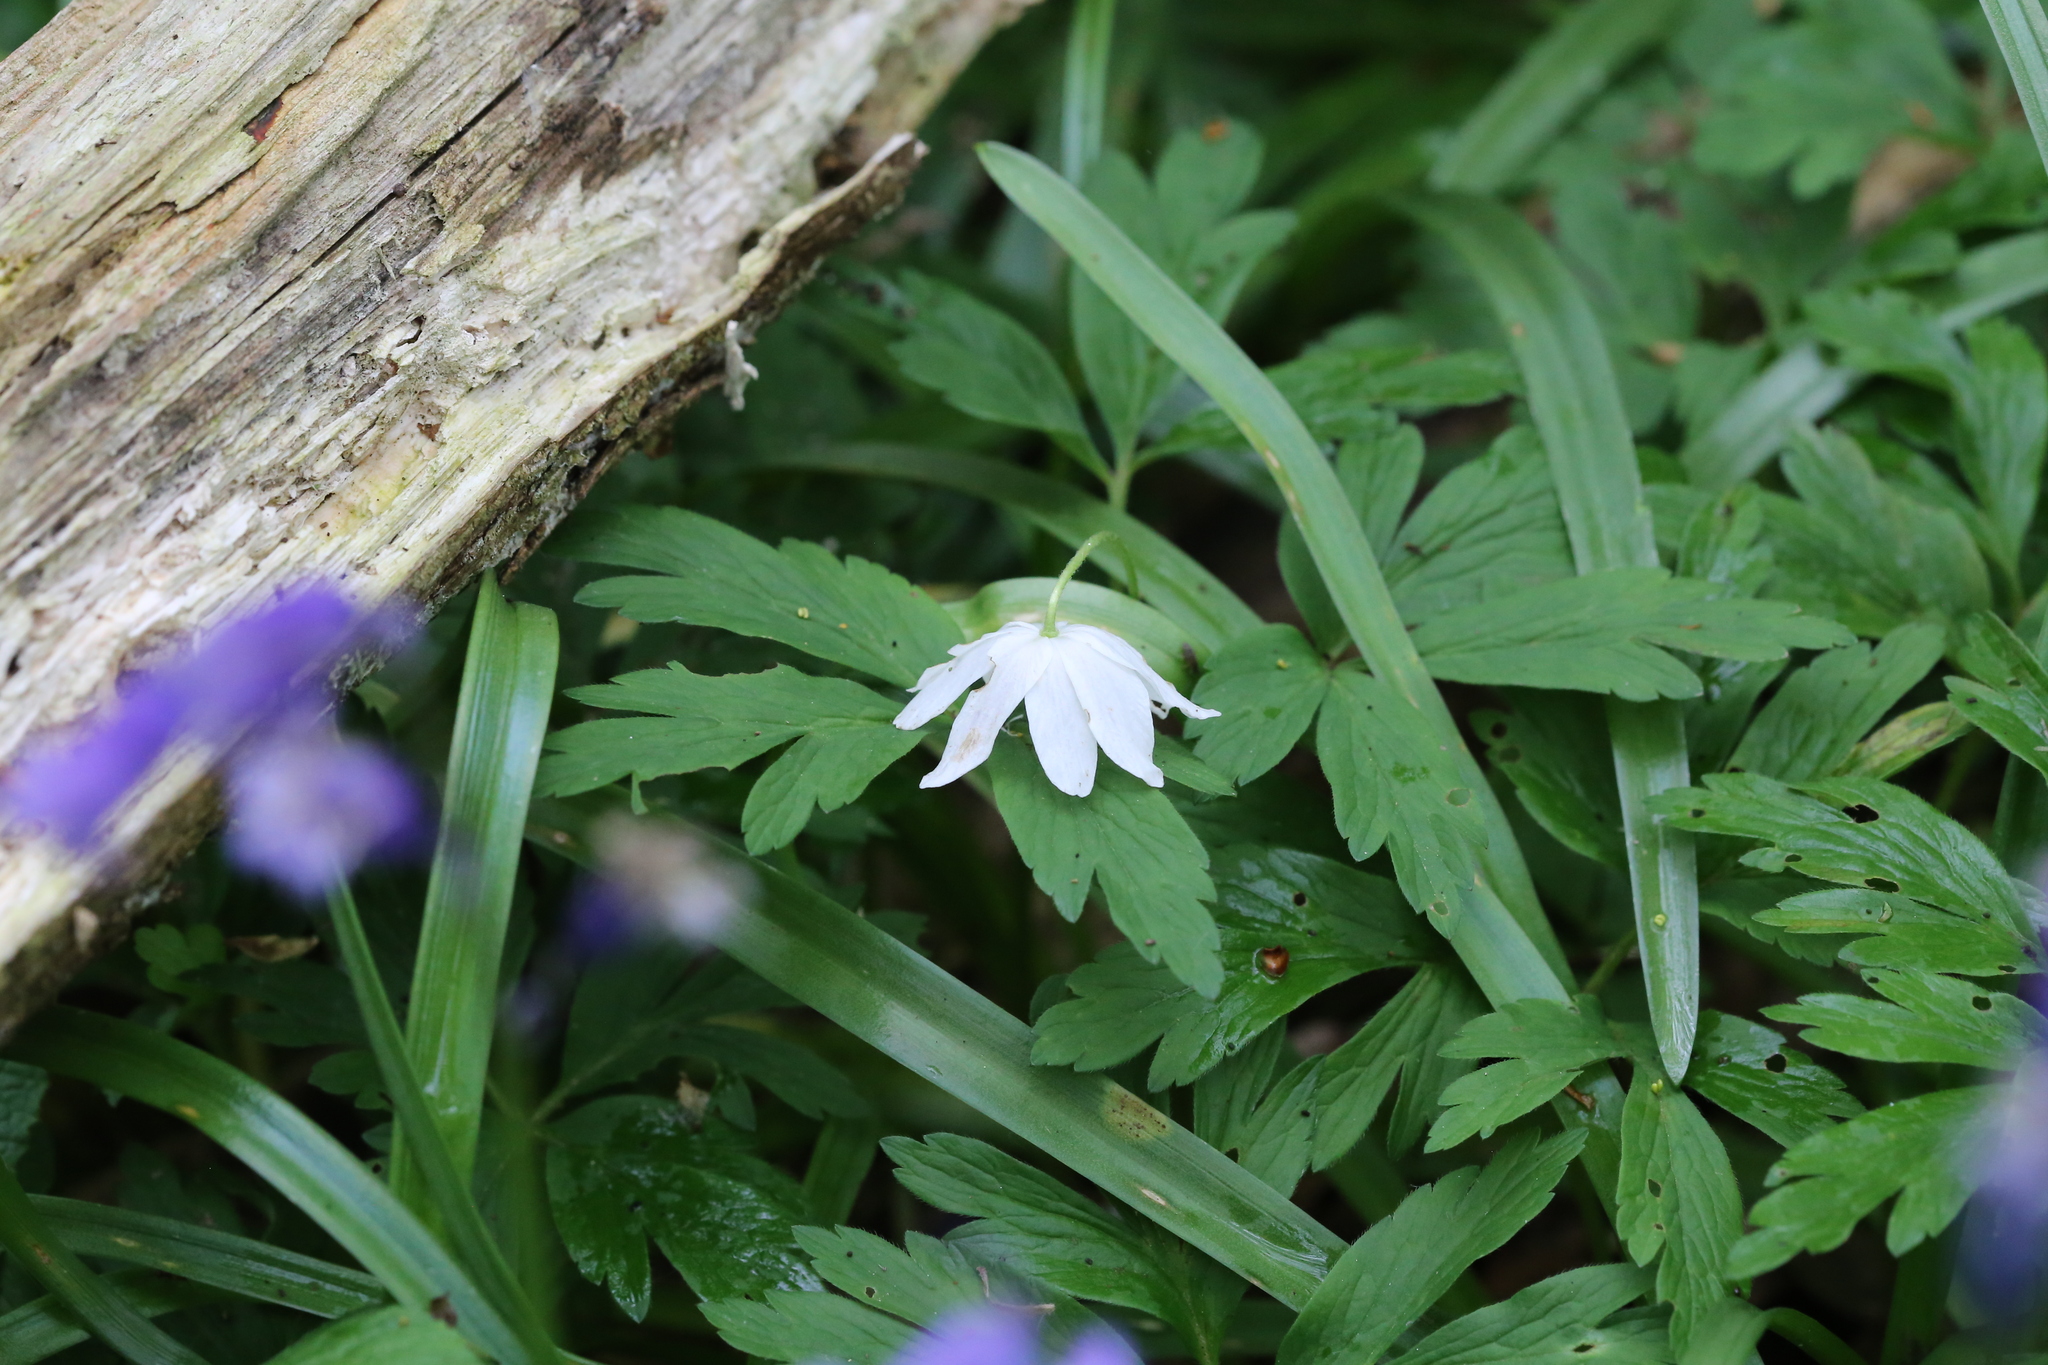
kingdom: Plantae
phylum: Tracheophyta
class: Magnoliopsida
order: Ranunculales
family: Ranunculaceae
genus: Anemone
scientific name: Anemone nemorosa
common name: Wood anemone
